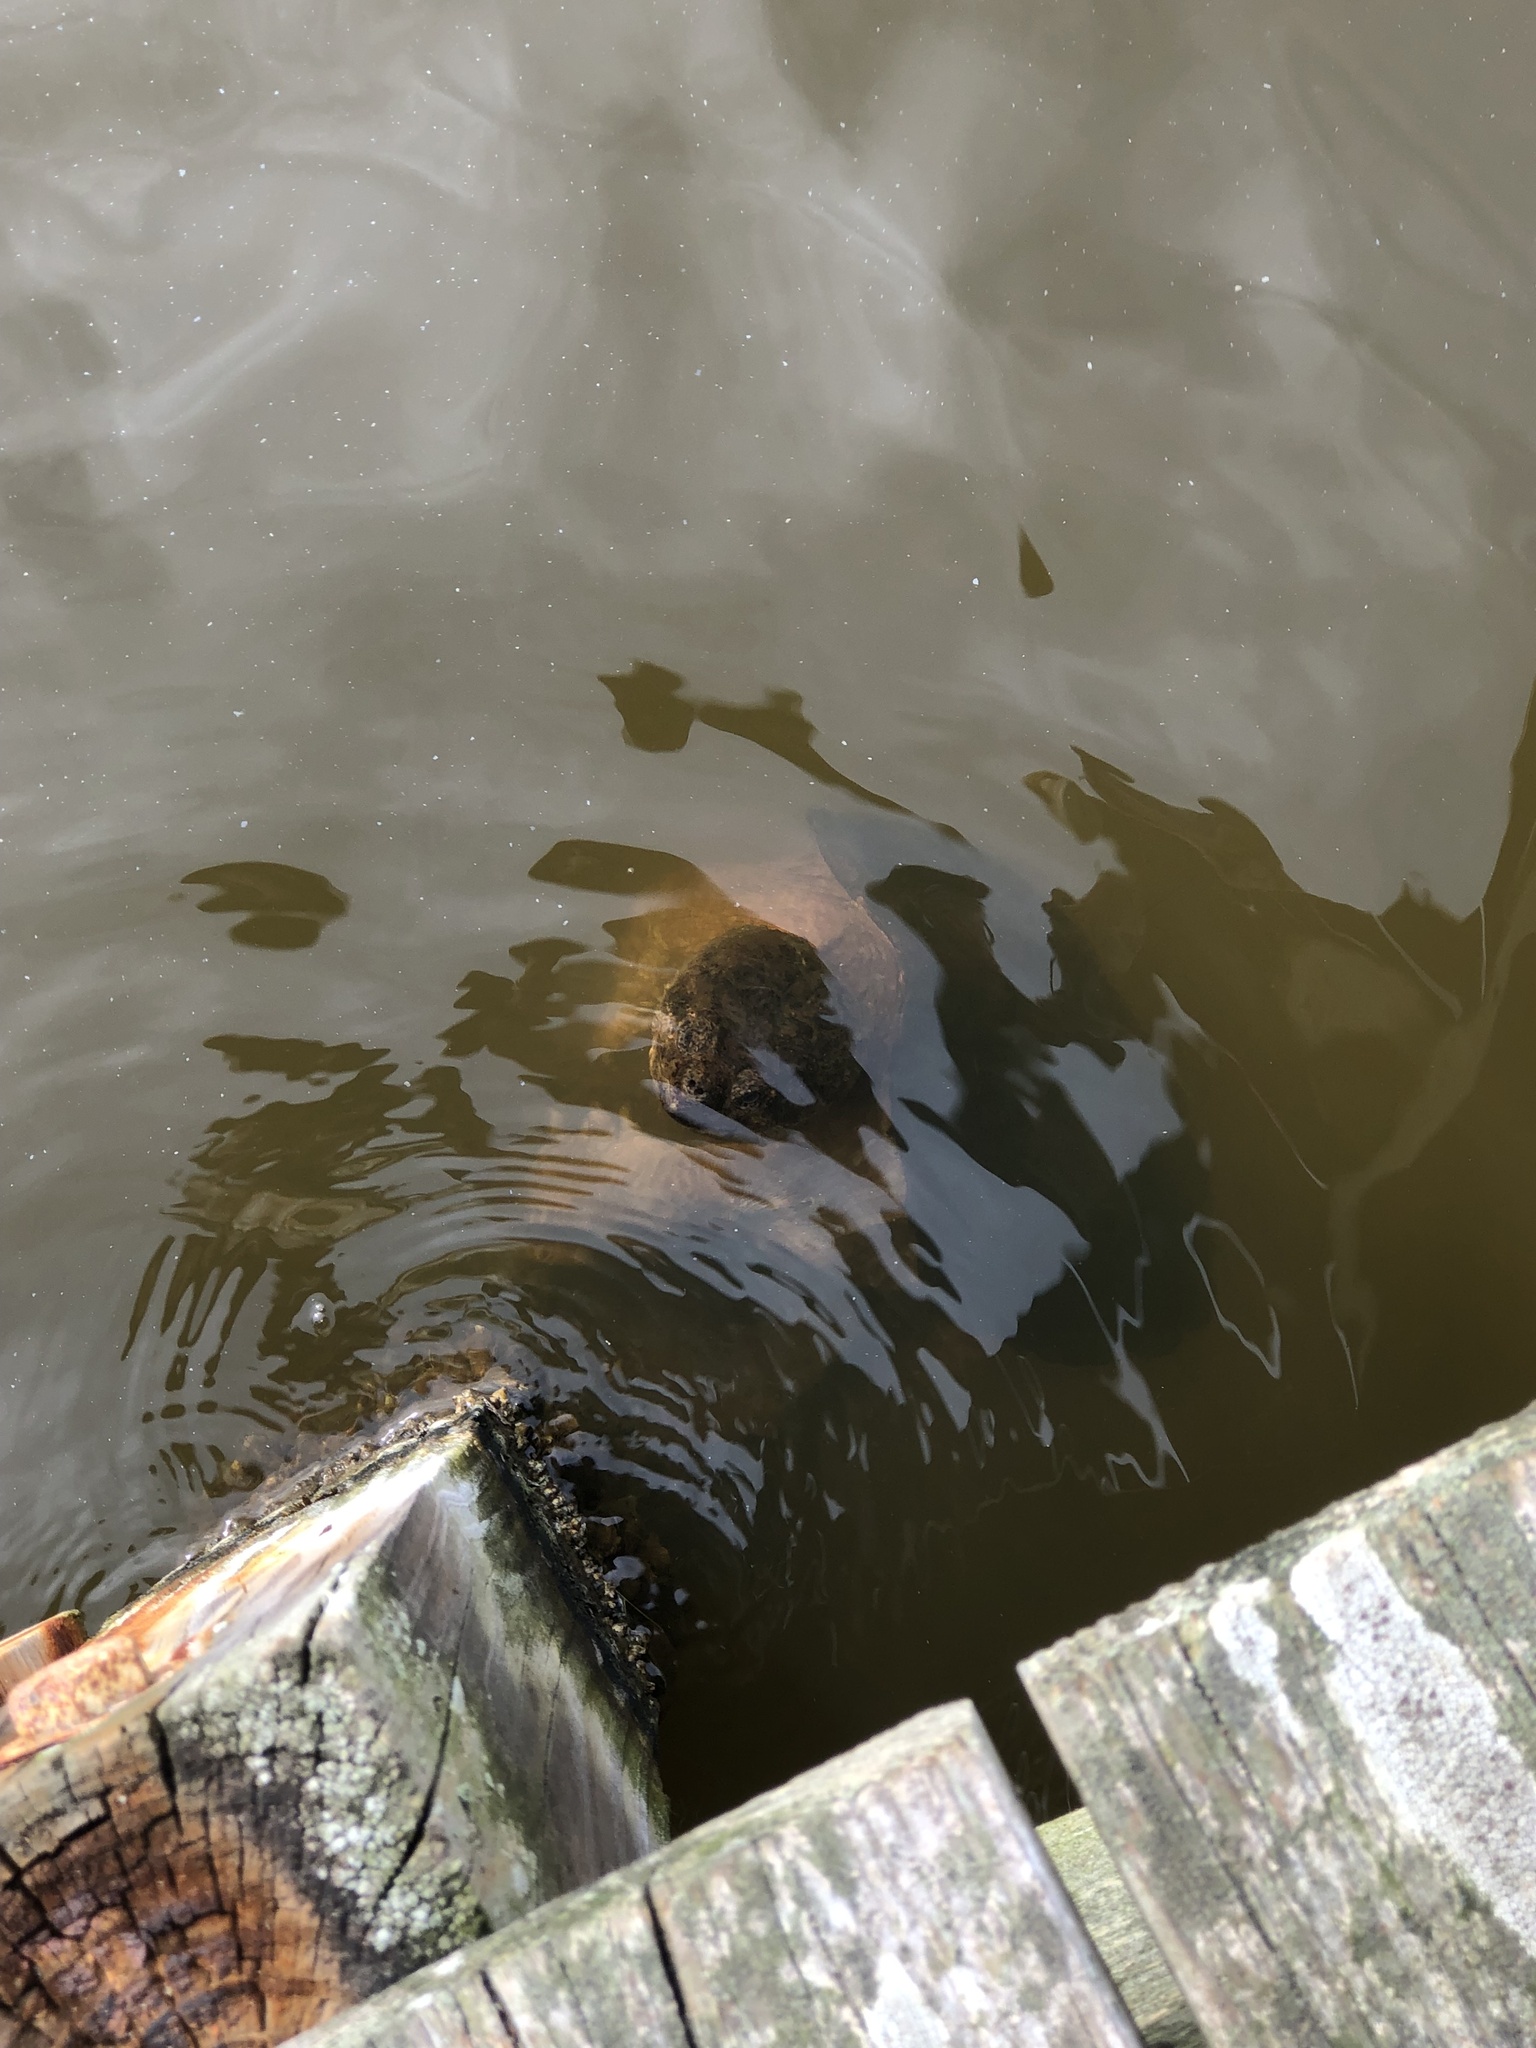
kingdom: Animalia
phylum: Chordata
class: Testudines
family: Chelydridae
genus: Chelydra
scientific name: Chelydra serpentina
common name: Common snapping turtle
